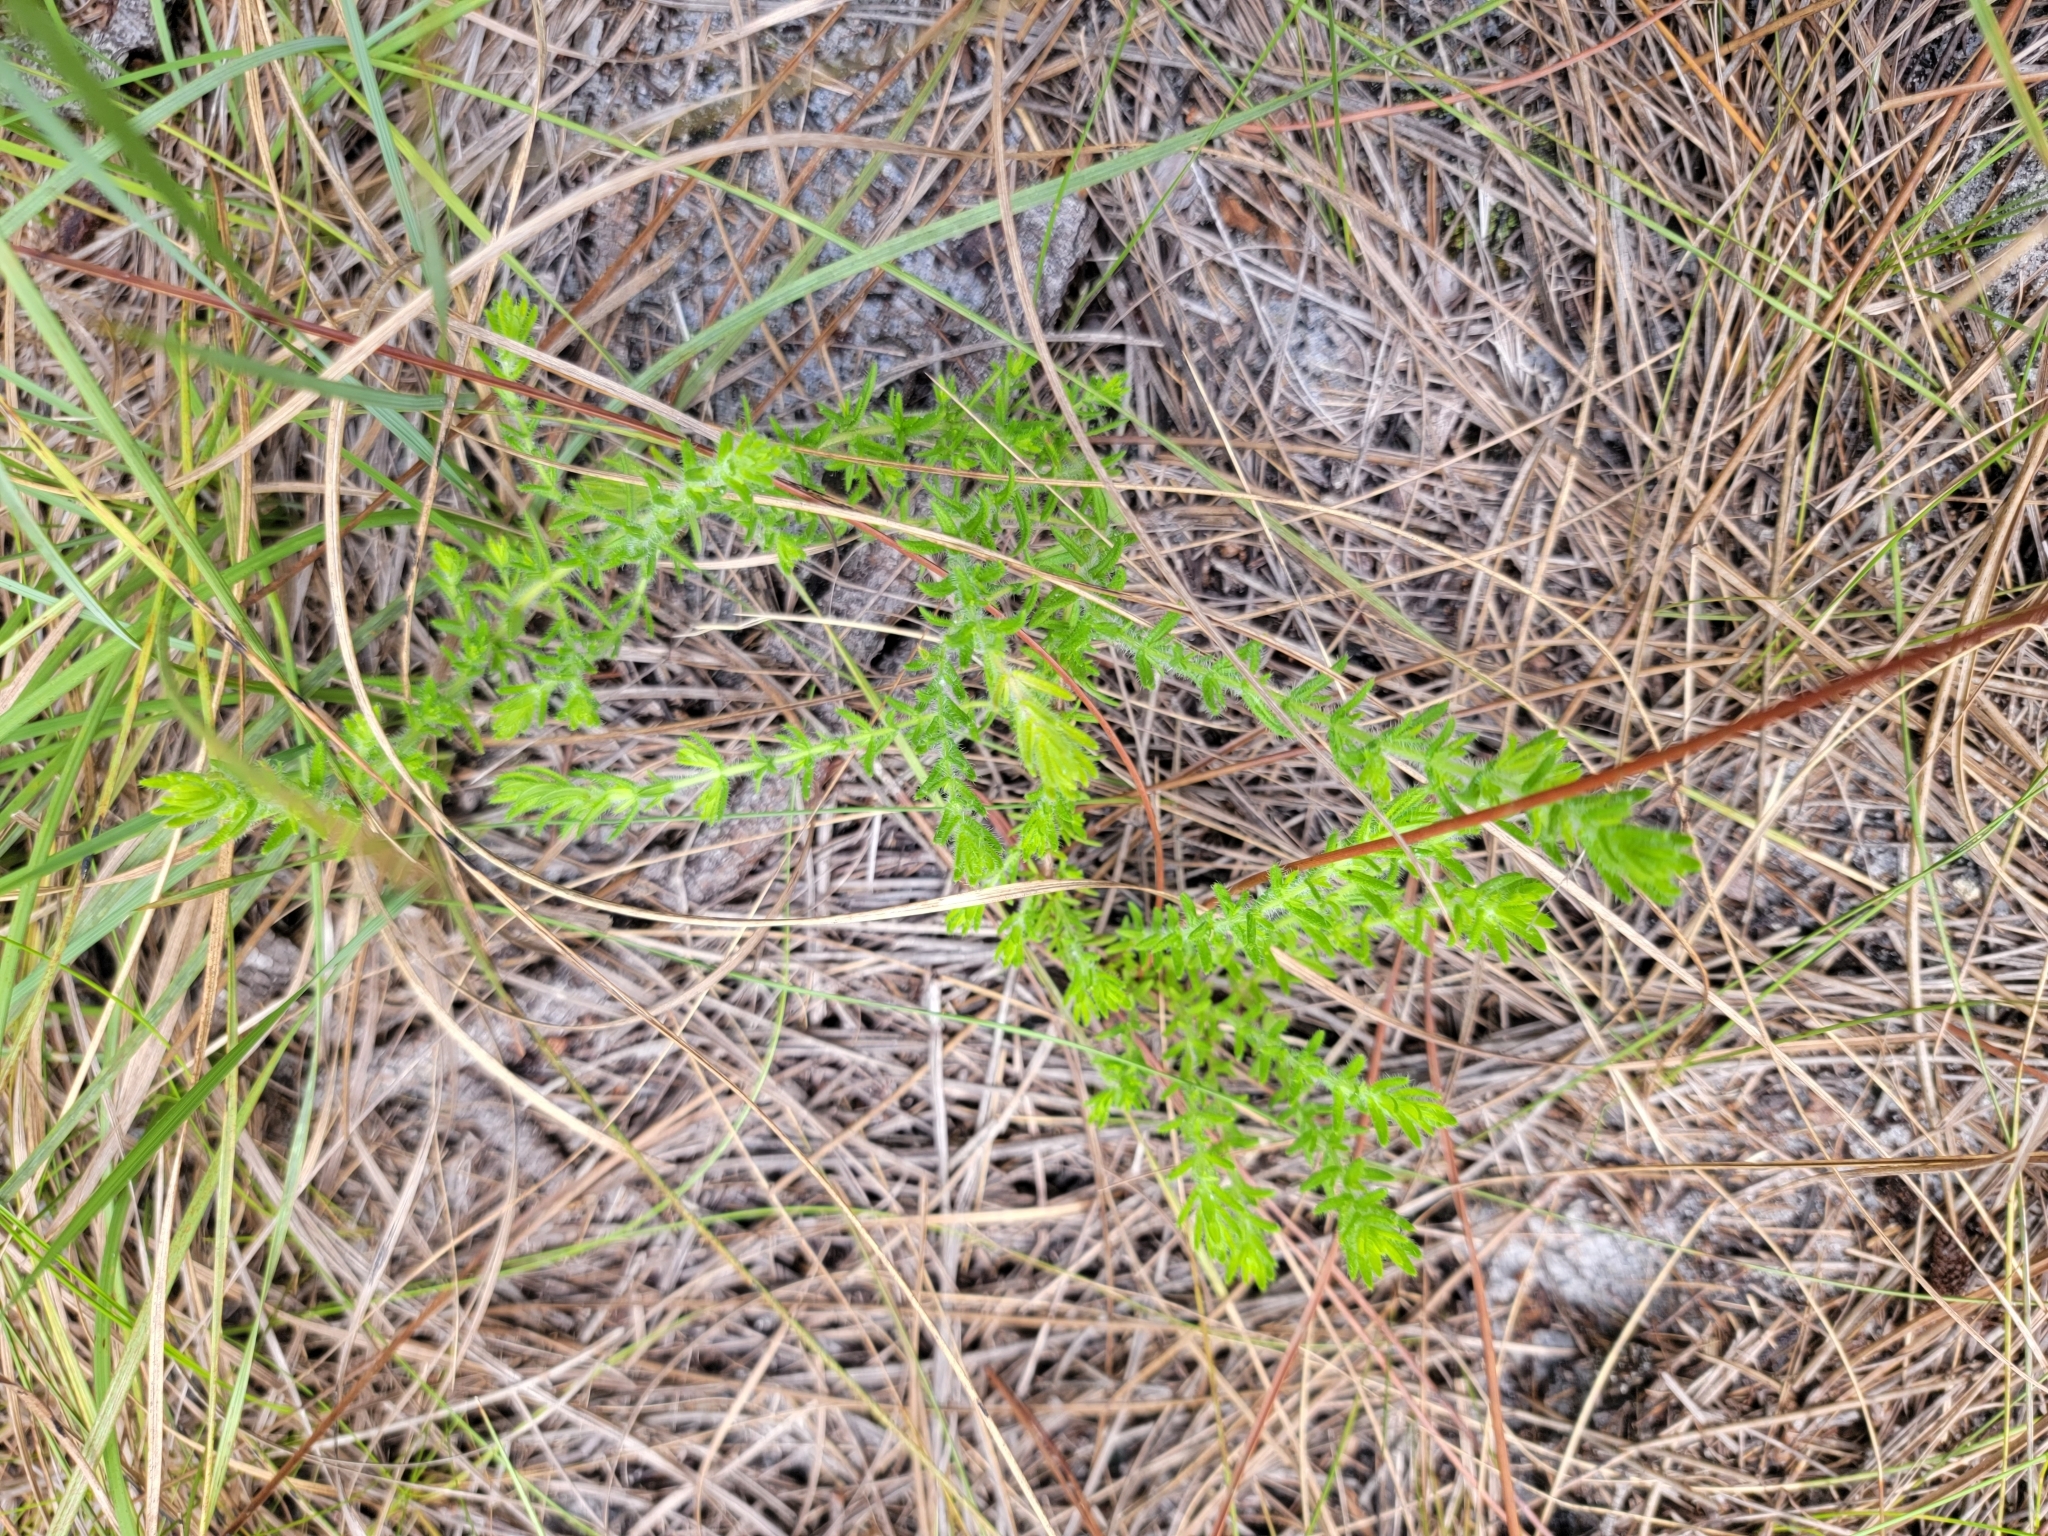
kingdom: Plantae
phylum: Tracheophyta
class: Magnoliopsida
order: Lamiales
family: Lamiaceae
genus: Piloblephis
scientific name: Piloblephis rigida
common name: Wild pennyroyal
